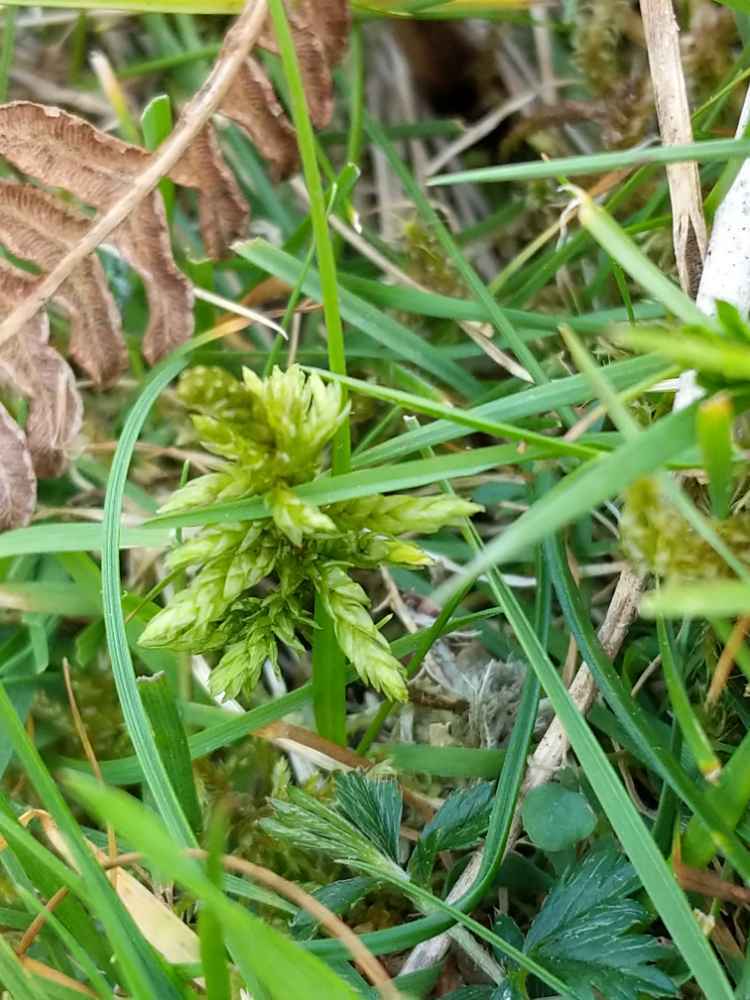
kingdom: Plantae
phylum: Bryophyta
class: Bryopsida
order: Hypnales
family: Climaciaceae
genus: Climacium
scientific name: Climacium dendroides
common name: Northern tree moss
